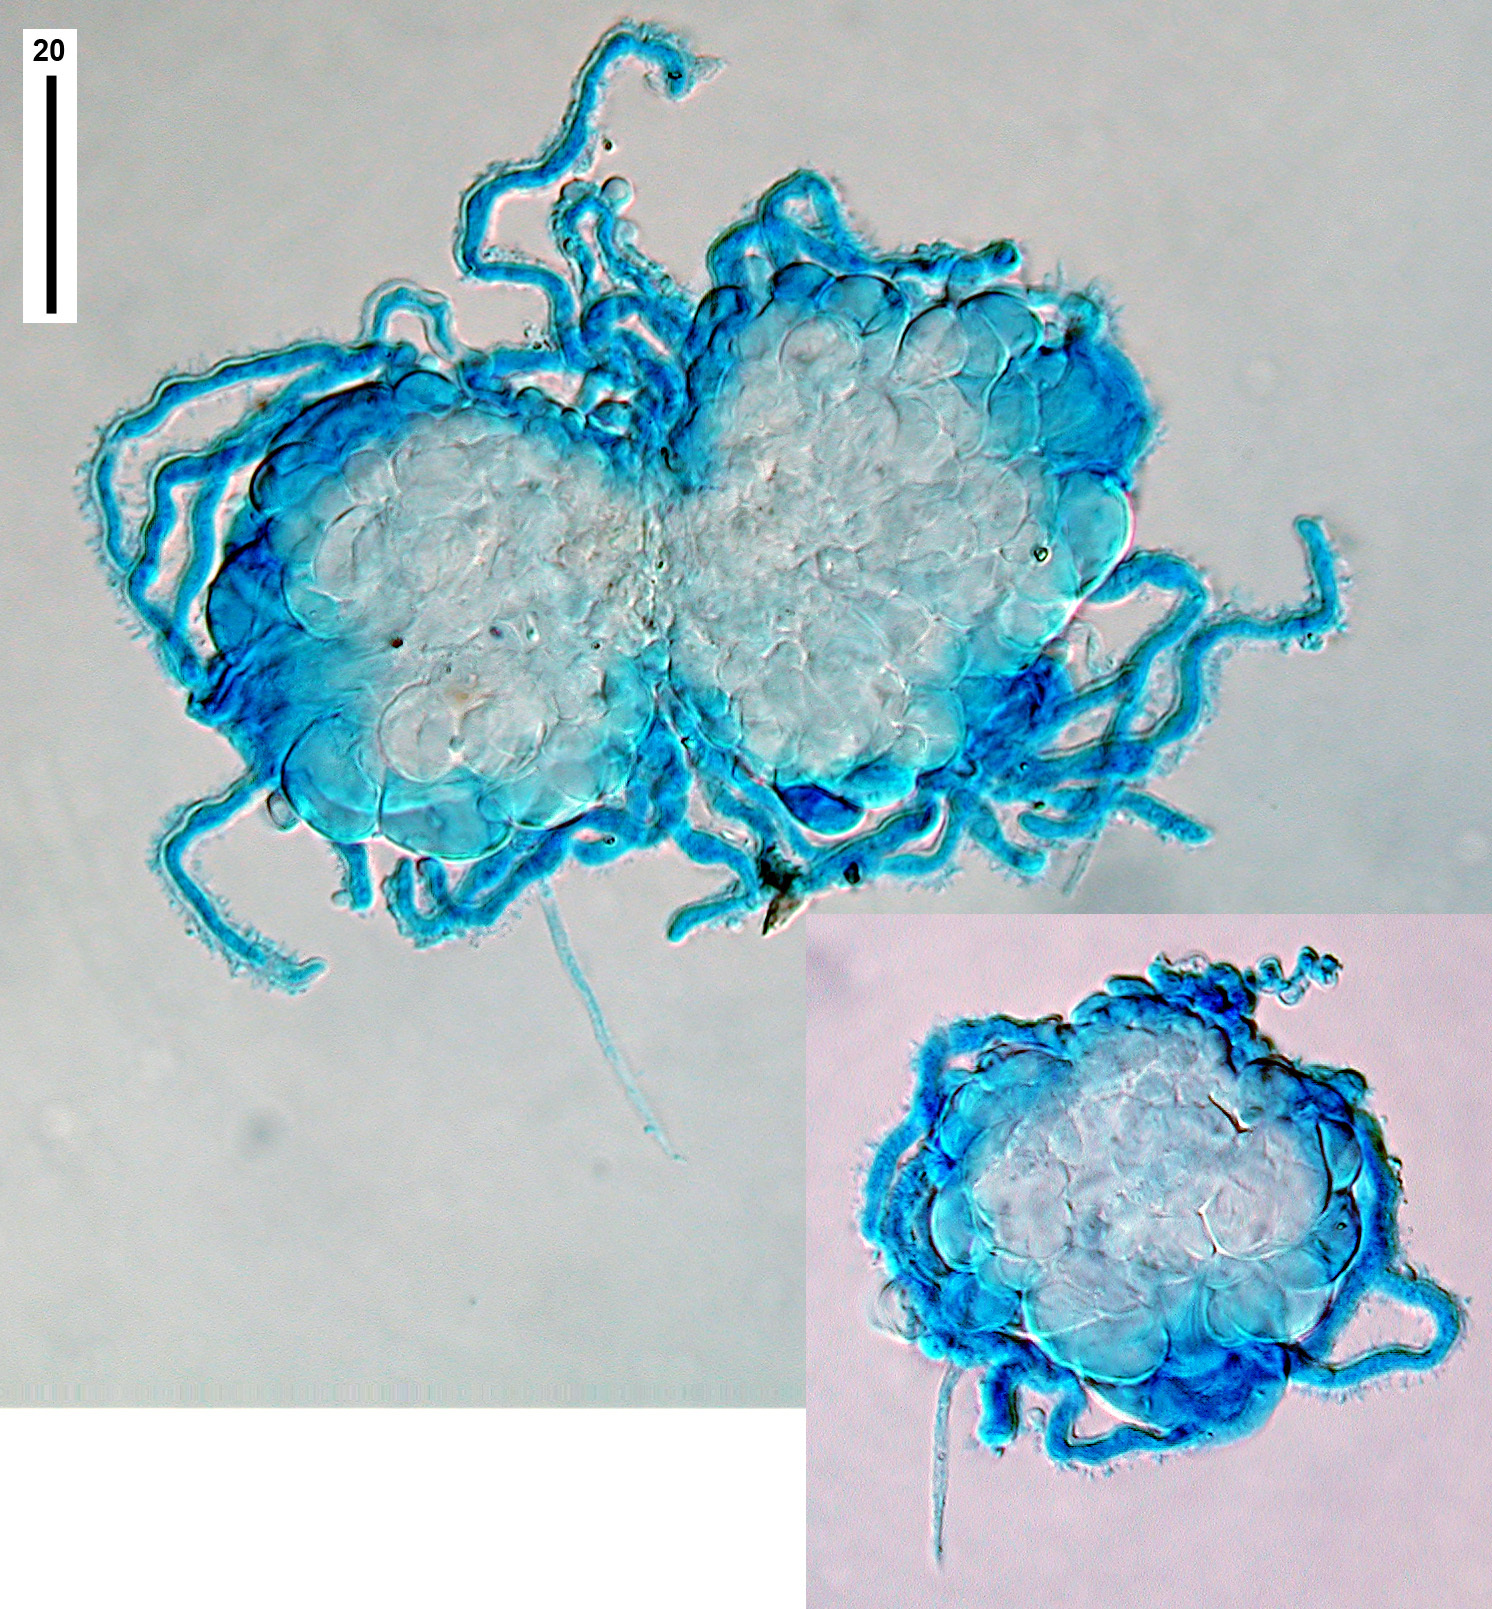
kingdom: Fungi
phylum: Basidiomycota
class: Agaricomycetes
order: Agaricales
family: Niaceae
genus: Peyronelina
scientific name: Peyronelina glomerulata
